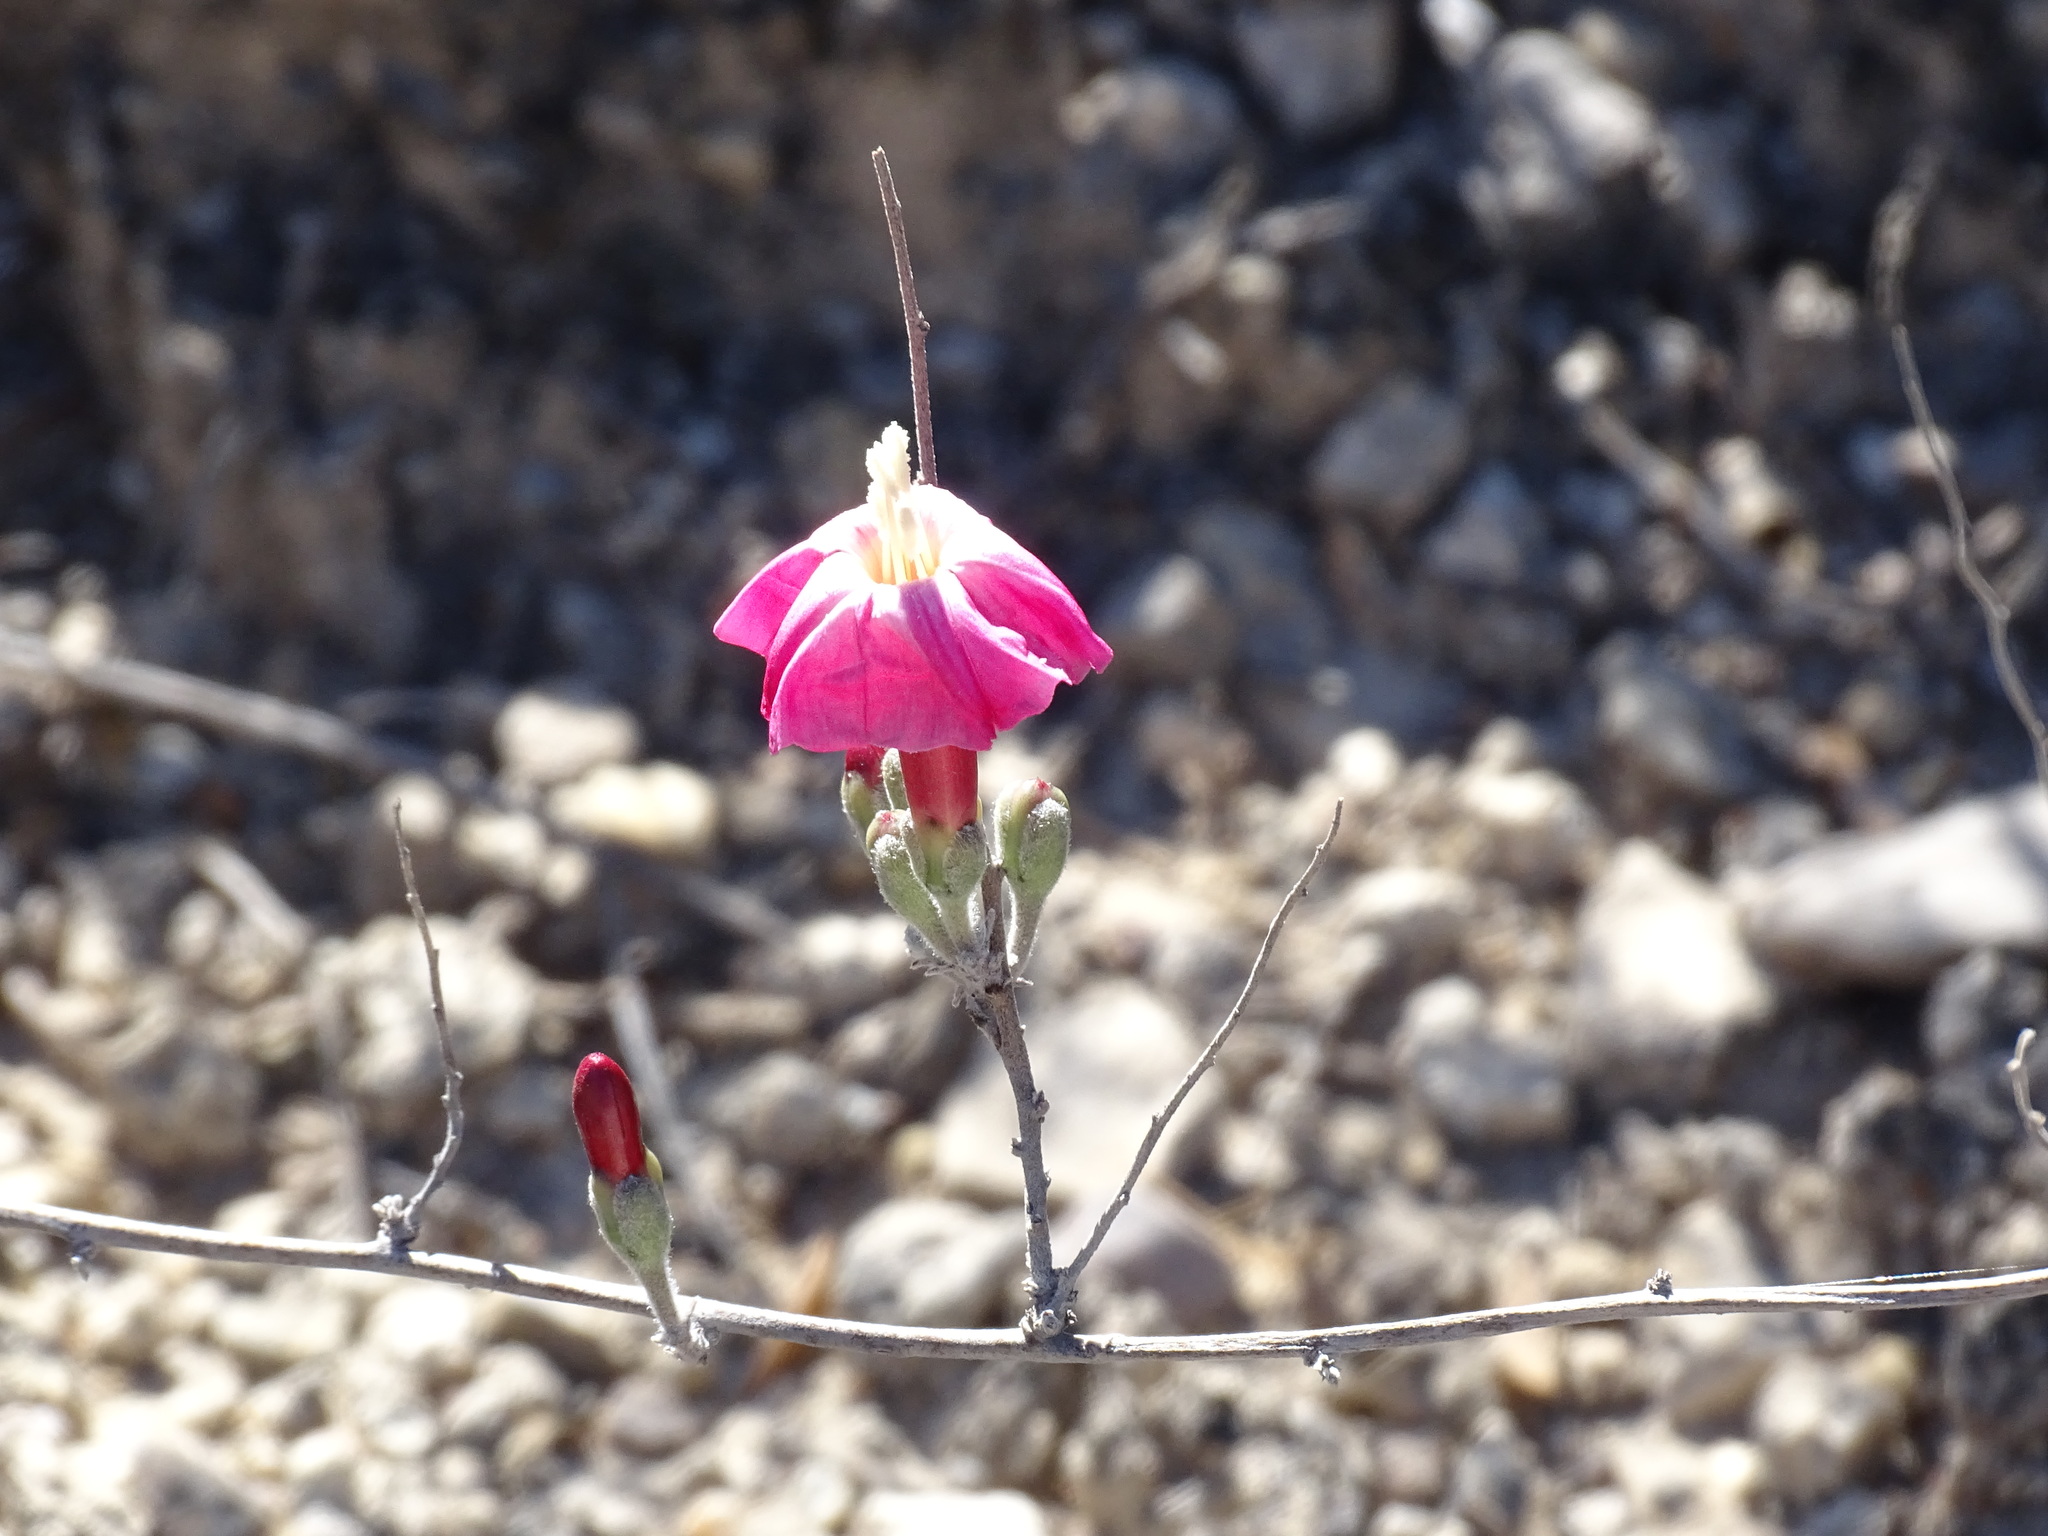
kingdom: Plantae
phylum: Tracheophyta
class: Magnoliopsida
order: Solanales
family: Convolvulaceae
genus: Ipomoea
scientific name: Ipomoea conzattii
